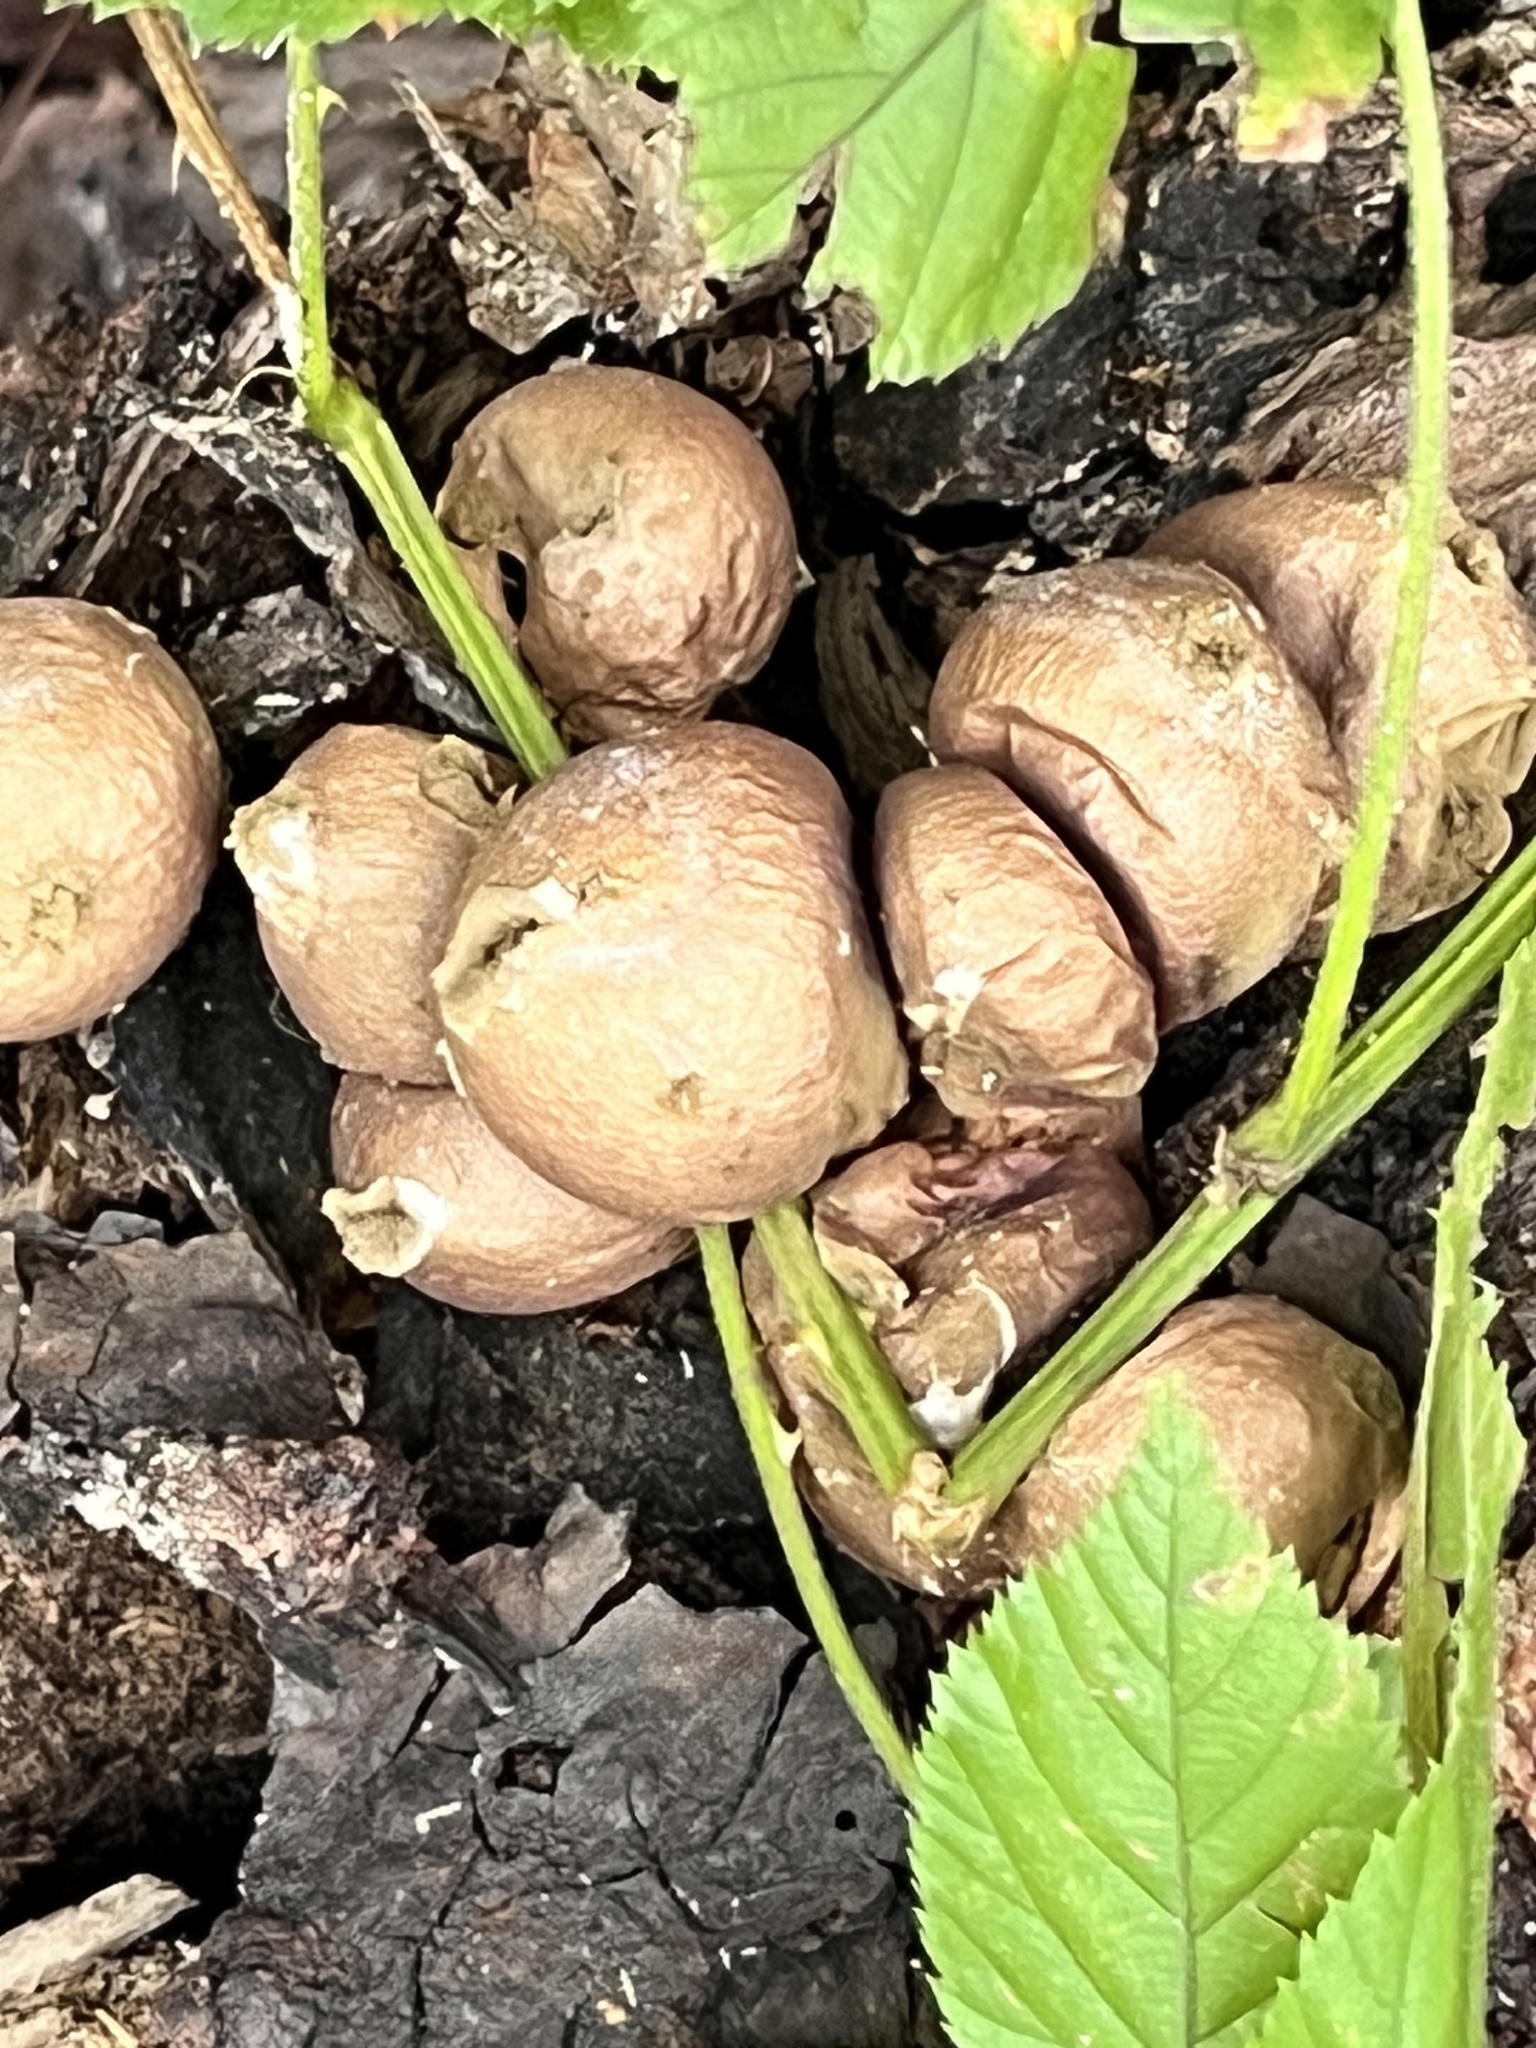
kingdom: Fungi
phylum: Basidiomycota
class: Agaricomycetes
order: Agaricales
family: Lycoperdaceae
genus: Apioperdon
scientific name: Apioperdon pyriforme
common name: Pear-shaped puffball
